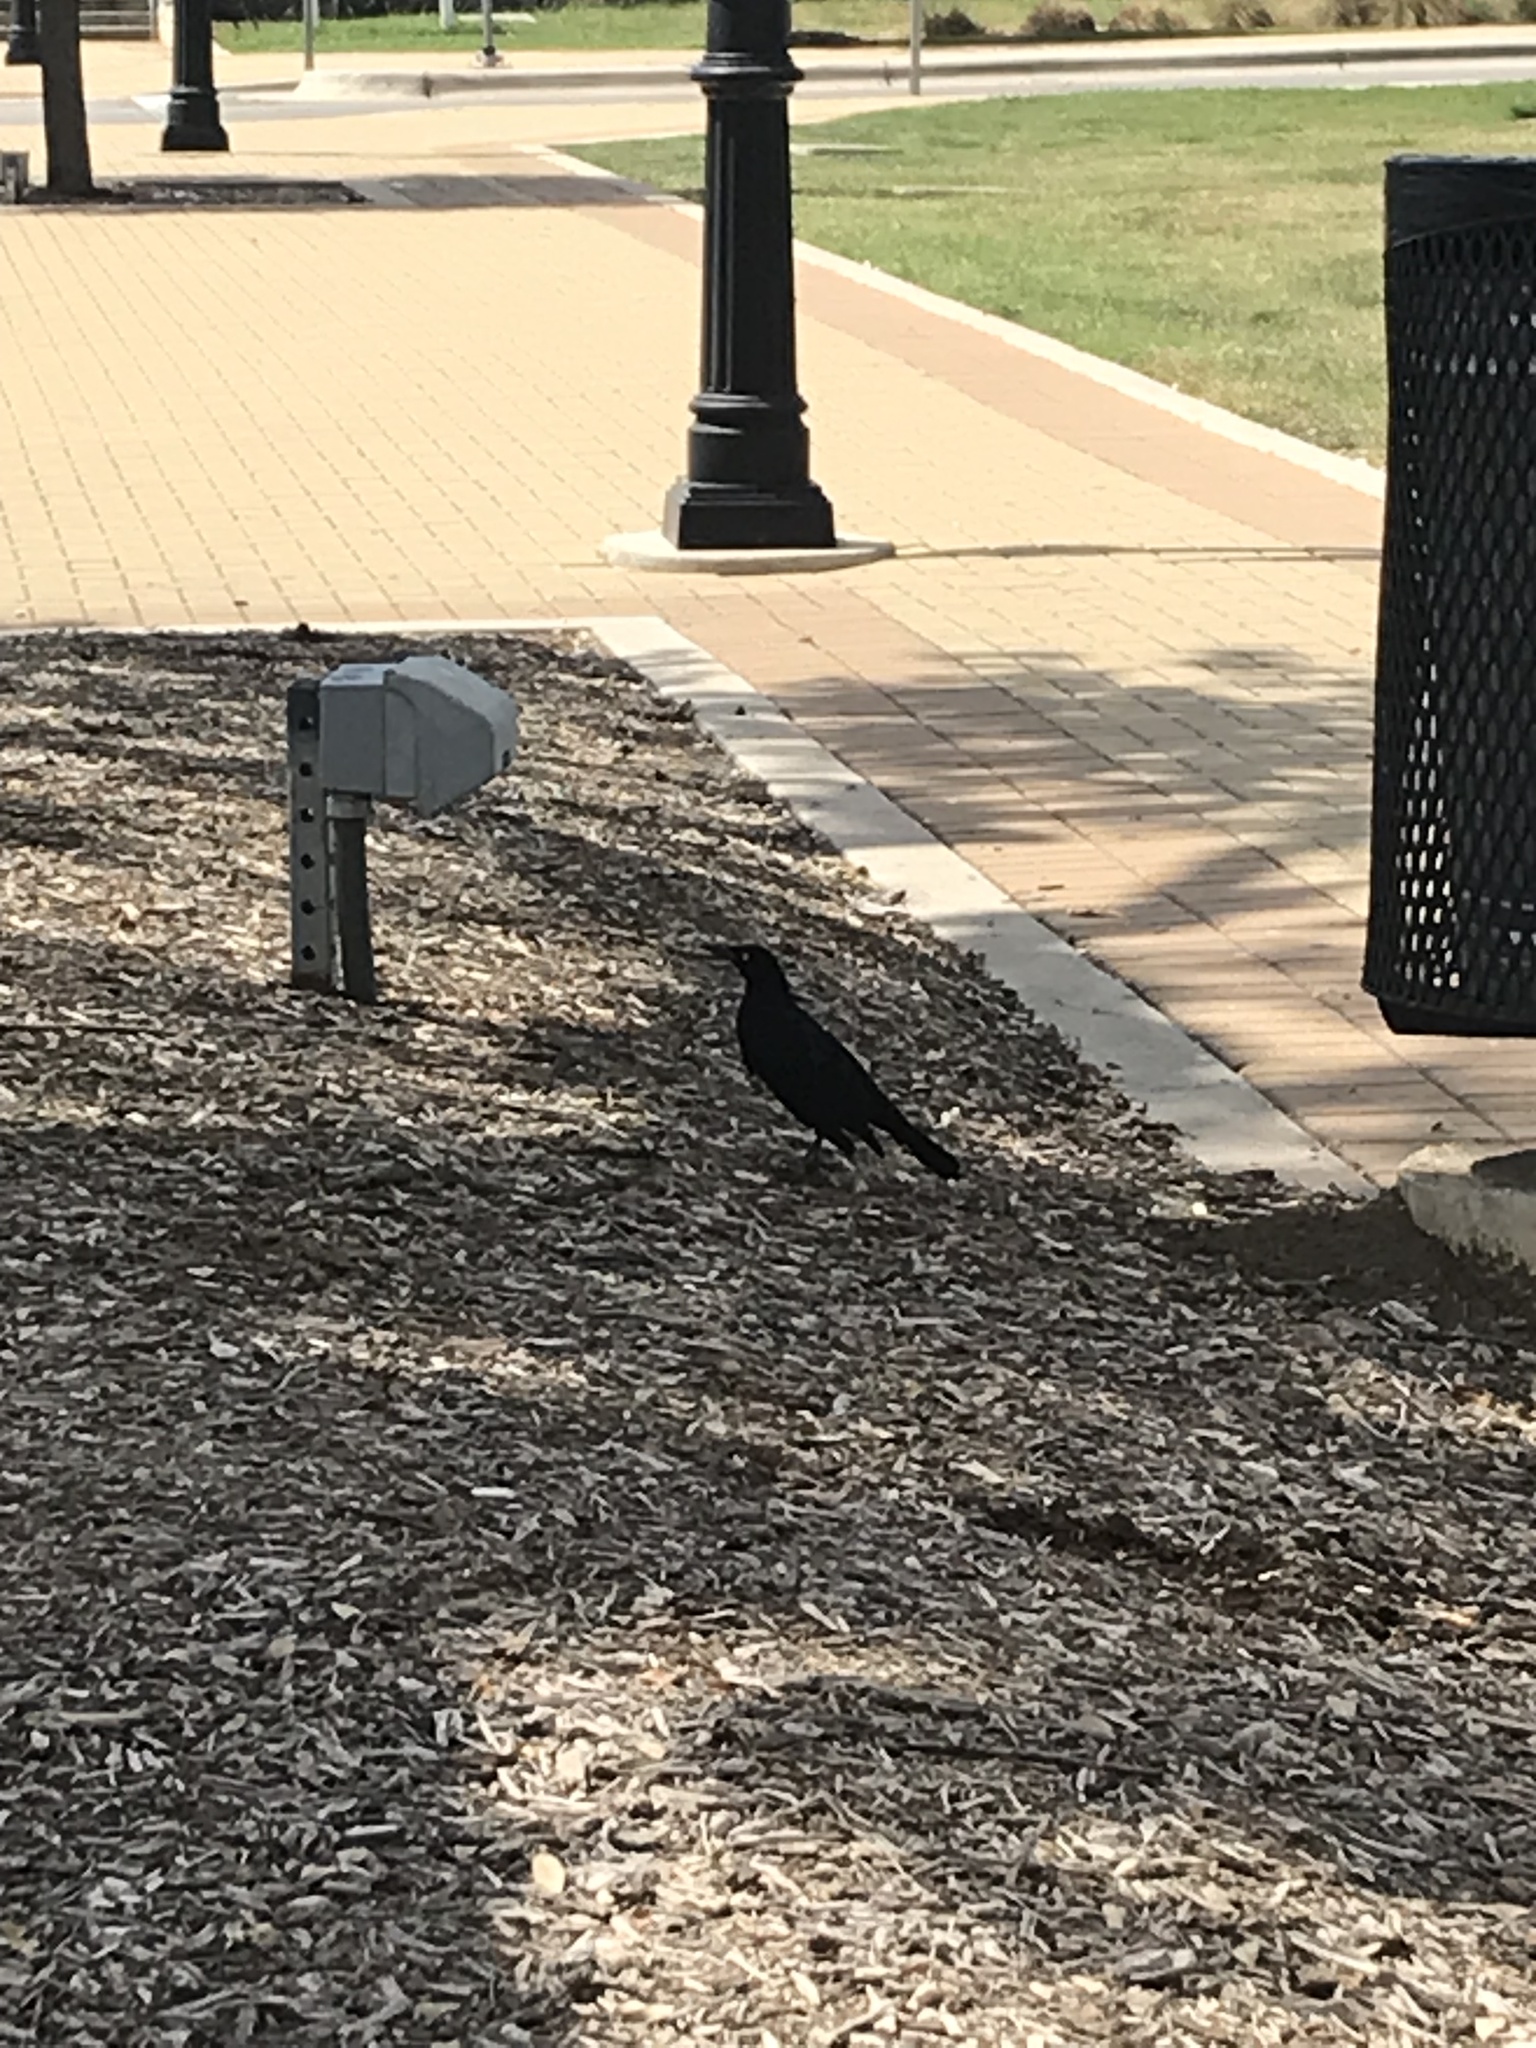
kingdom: Animalia
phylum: Chordata
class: Aves
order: Passeriformes
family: Icteridae
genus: Quiscalus
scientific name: Quiscalus mexicanus
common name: Great-tailed grackle
